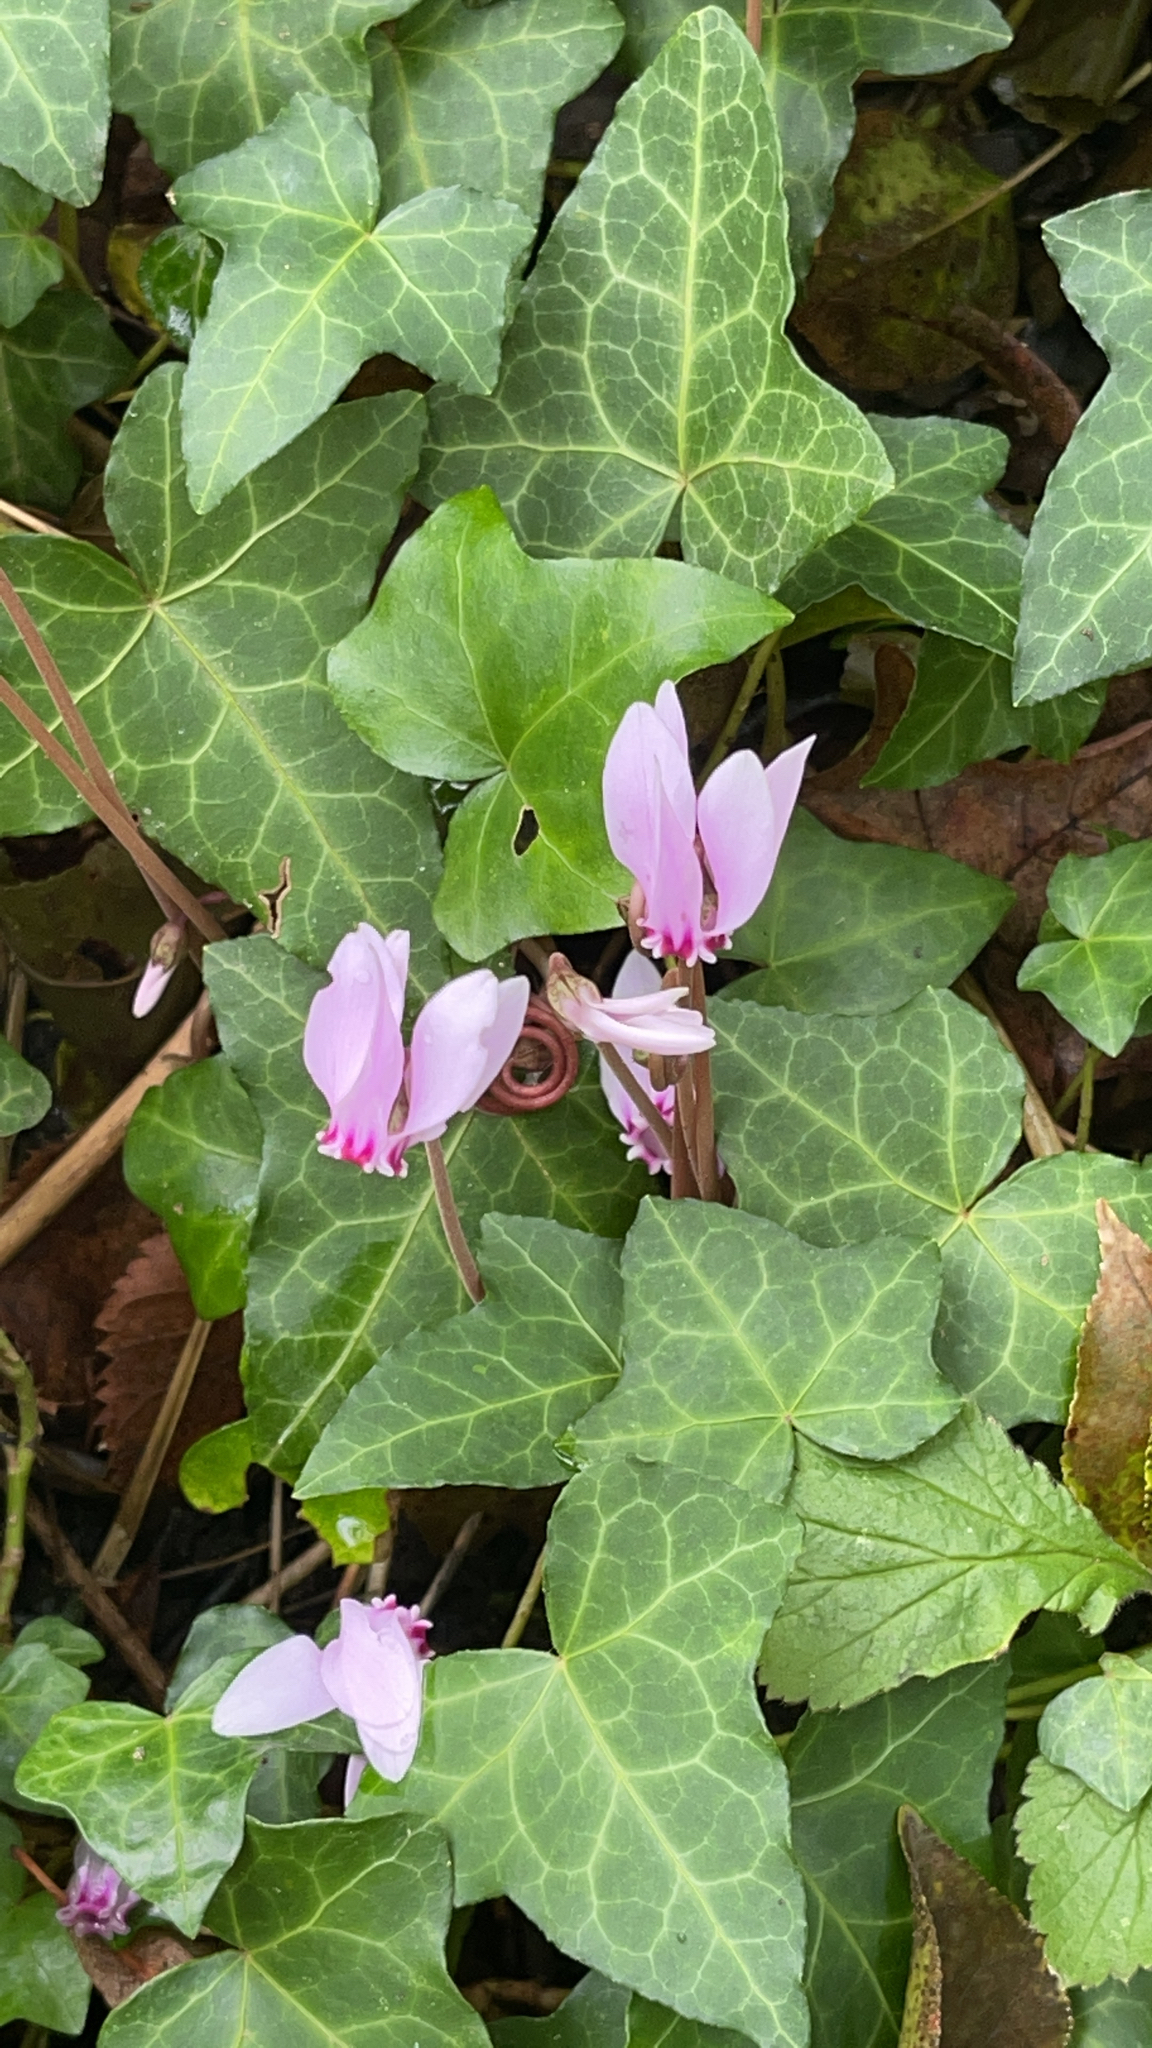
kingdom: Plantae
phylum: Tracheophyta
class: Magnoliopsida
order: Ericales
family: Primulaceae
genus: Cyclamen
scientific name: Cyclamen hederifolium
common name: Sowbread
